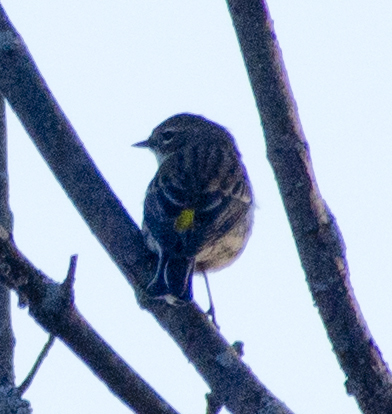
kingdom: Animalia
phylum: Chordata
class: Aves
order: Passeriformes
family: Parulidae
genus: Setophaga
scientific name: Setophaga coronata
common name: Myrtle warbler
